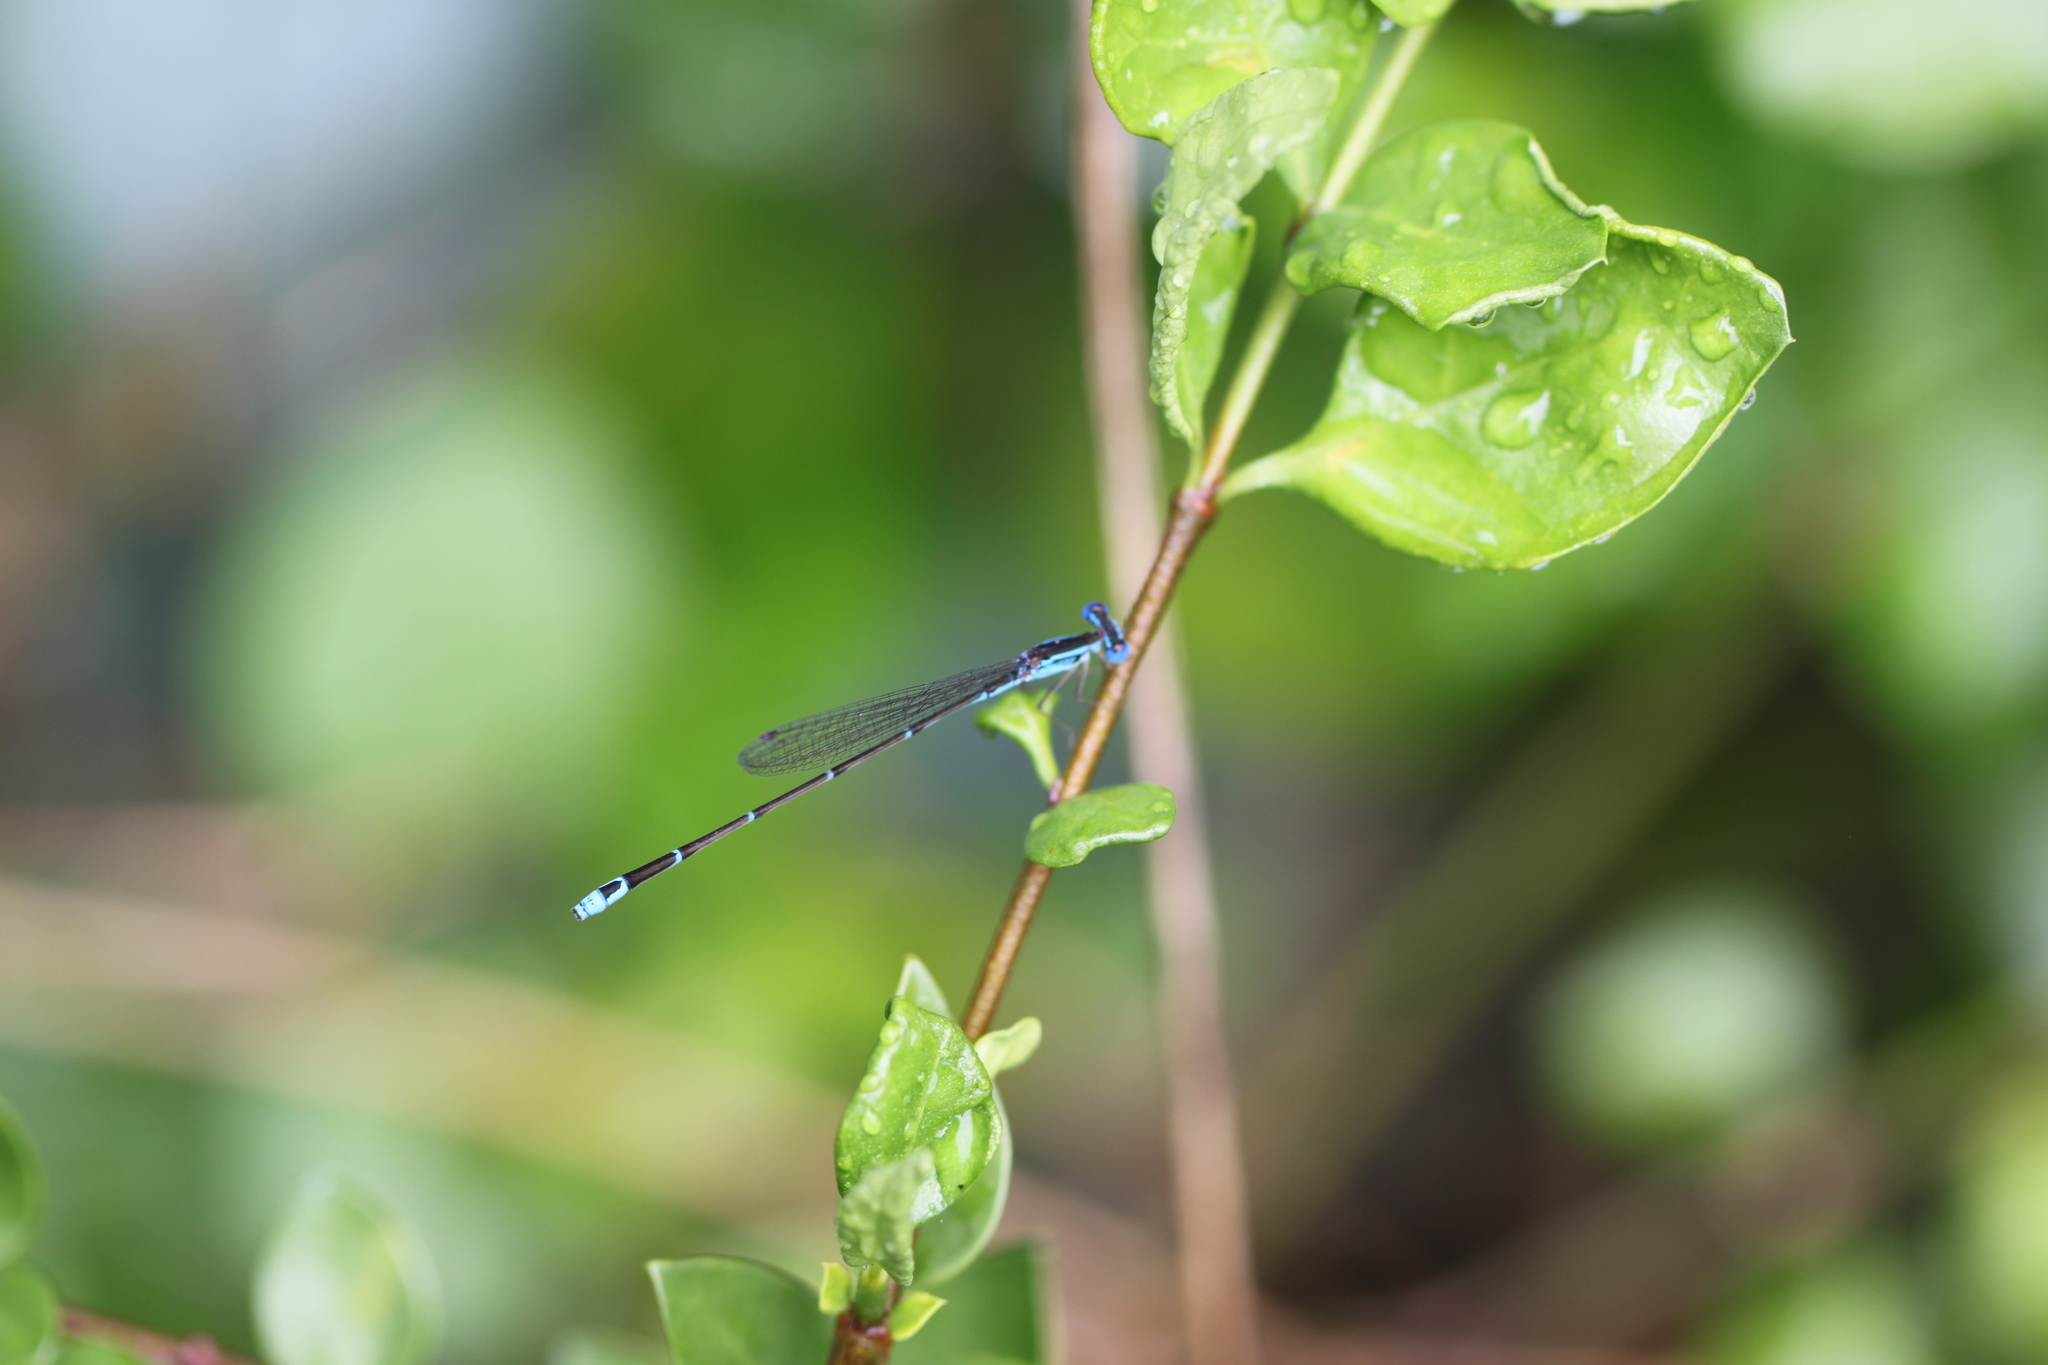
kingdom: Animalia
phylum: Arthropoda
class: Insecta
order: Odonata
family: Coenagrionidae
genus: Nehalennia
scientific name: Nehalennia minuta
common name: Tropical sprite
